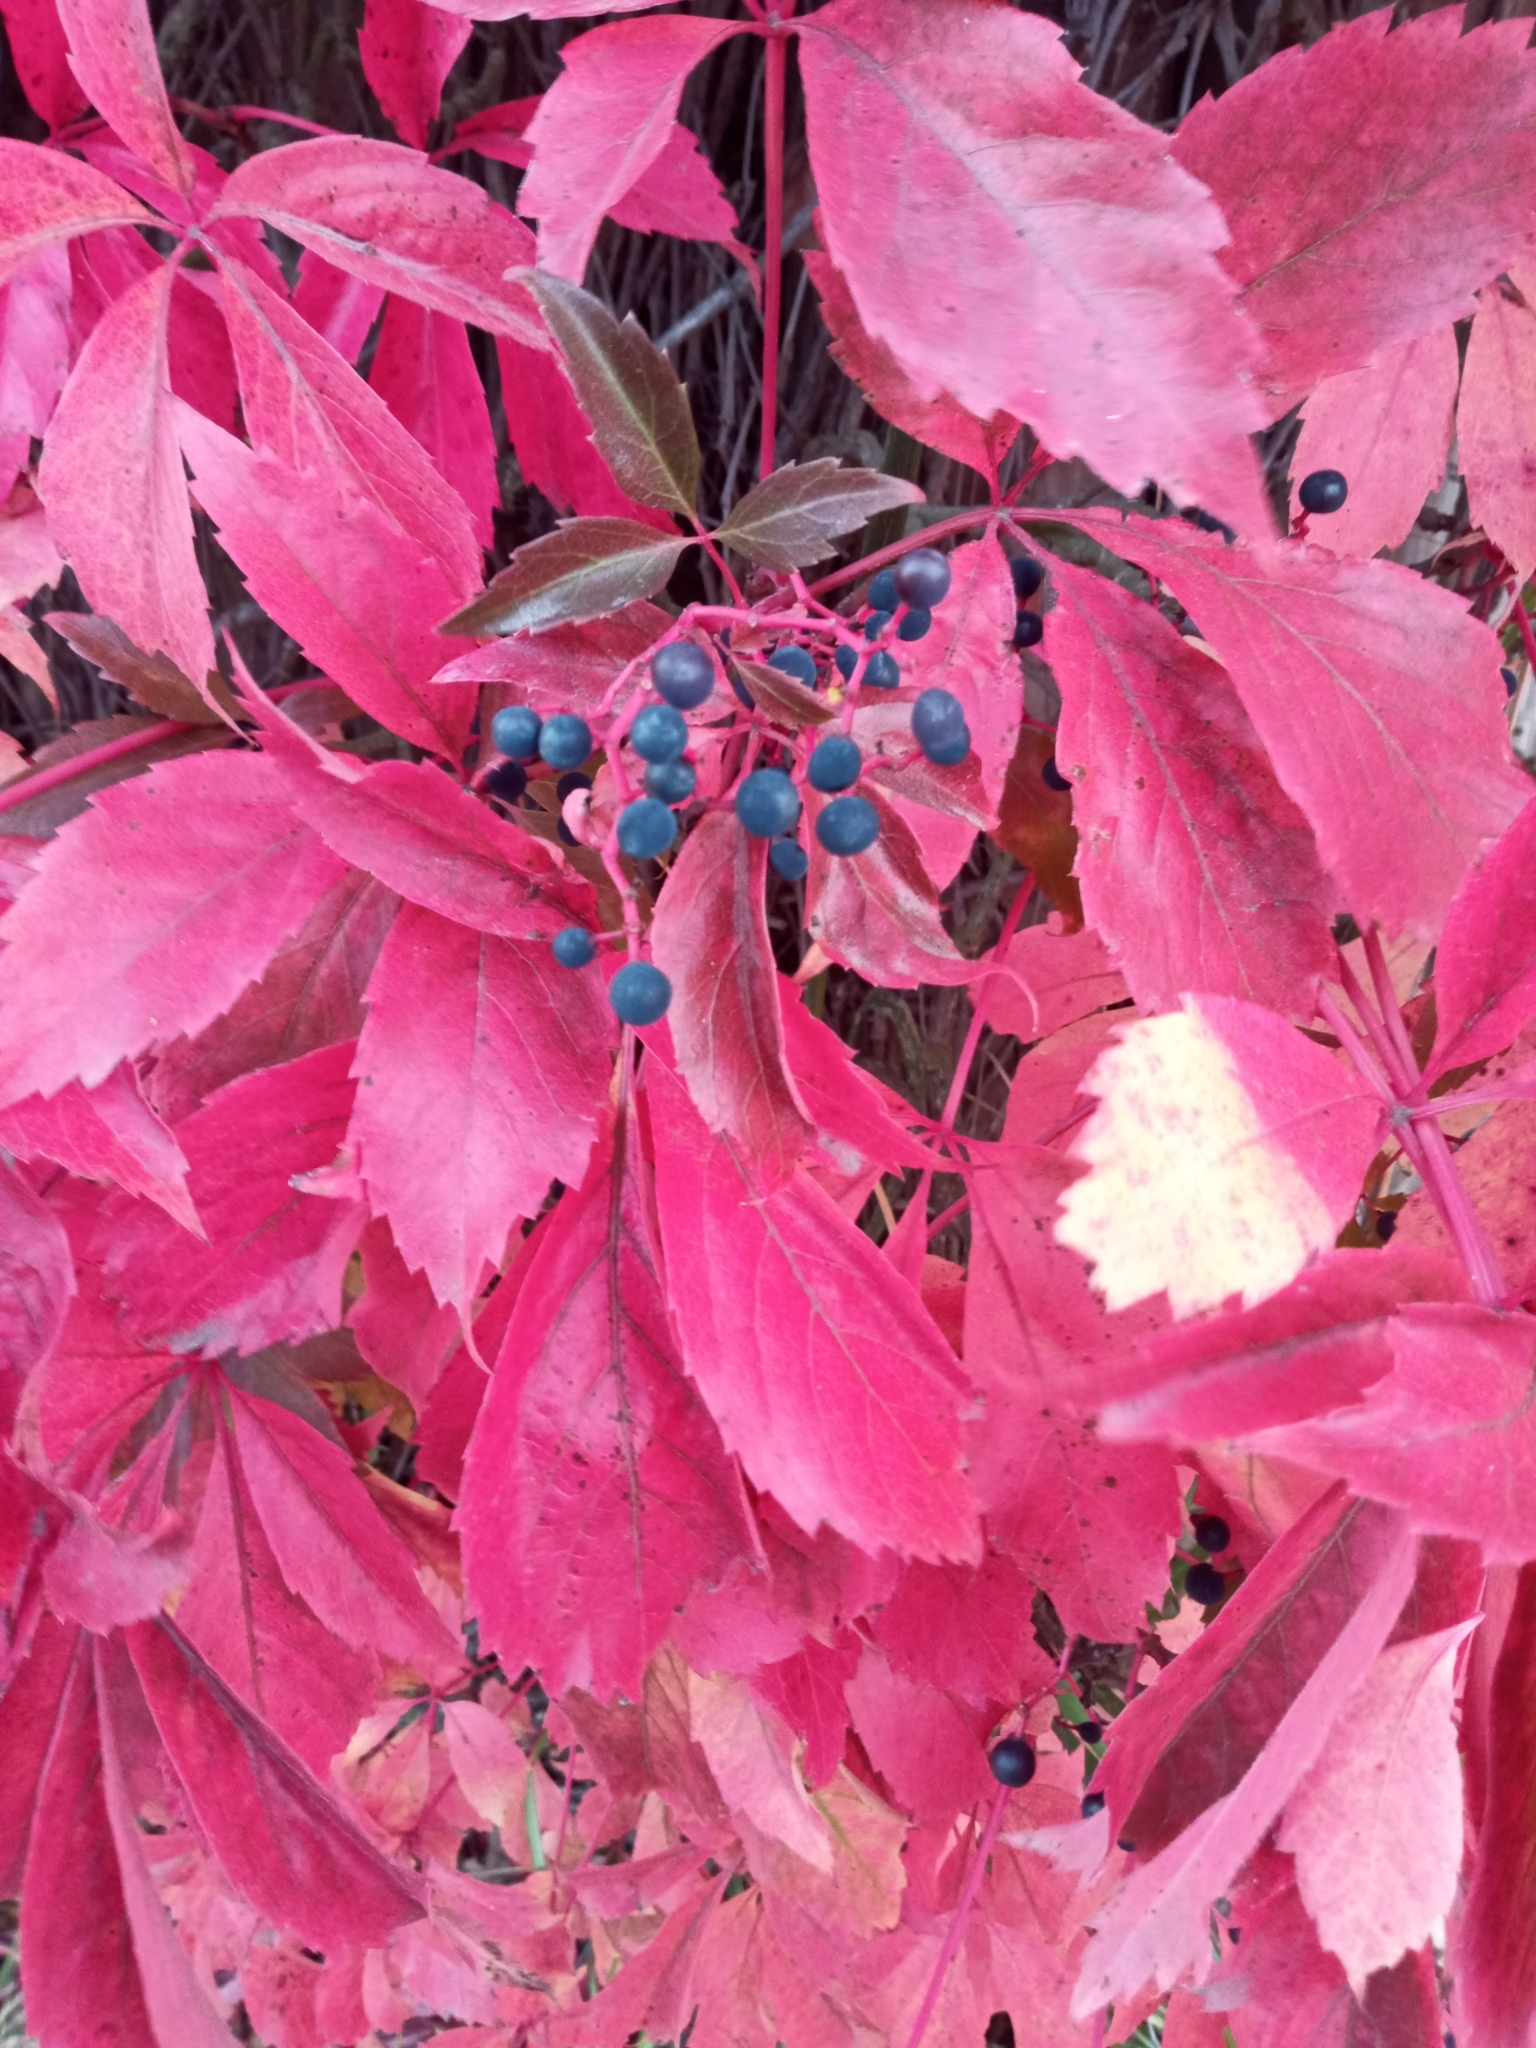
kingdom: Plantae
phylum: Tracheophyta
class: Magnoliopsida
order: Vitales
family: Vitaceae
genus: Parthenocissus
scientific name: Parthenocissus quinquefolia
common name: Virginia-creeper
